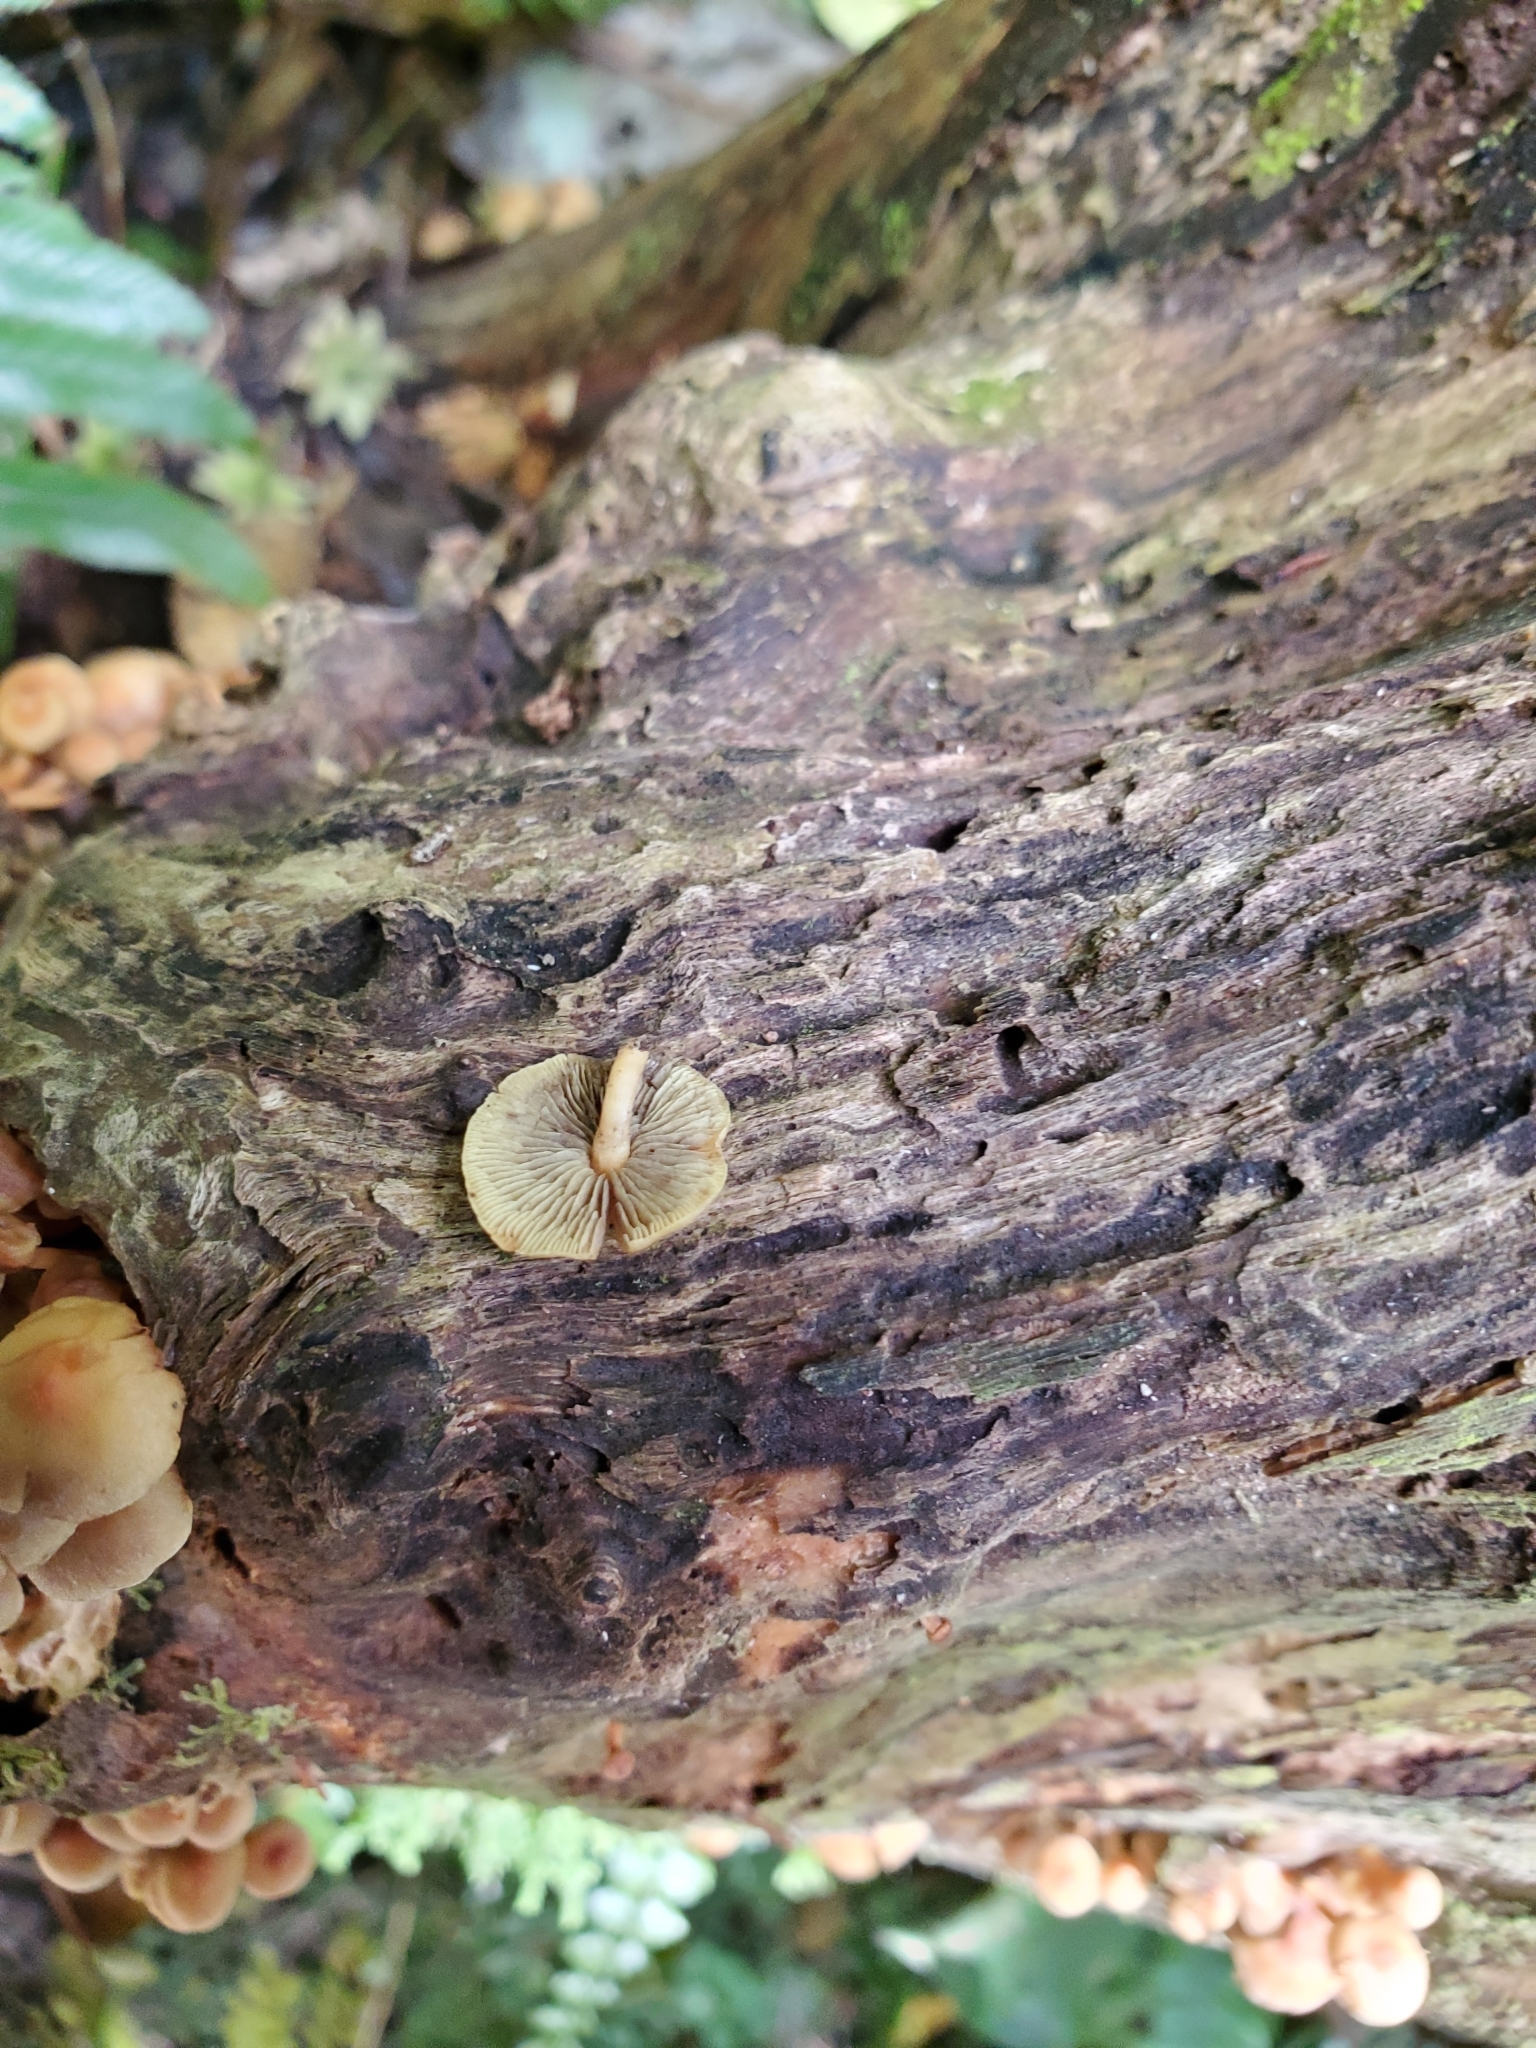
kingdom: Fungi
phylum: Basidiomycota
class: Agaricomycetes
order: Agaricales
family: Strophariaceae
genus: Hypholoma
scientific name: Hypholoma acutum
